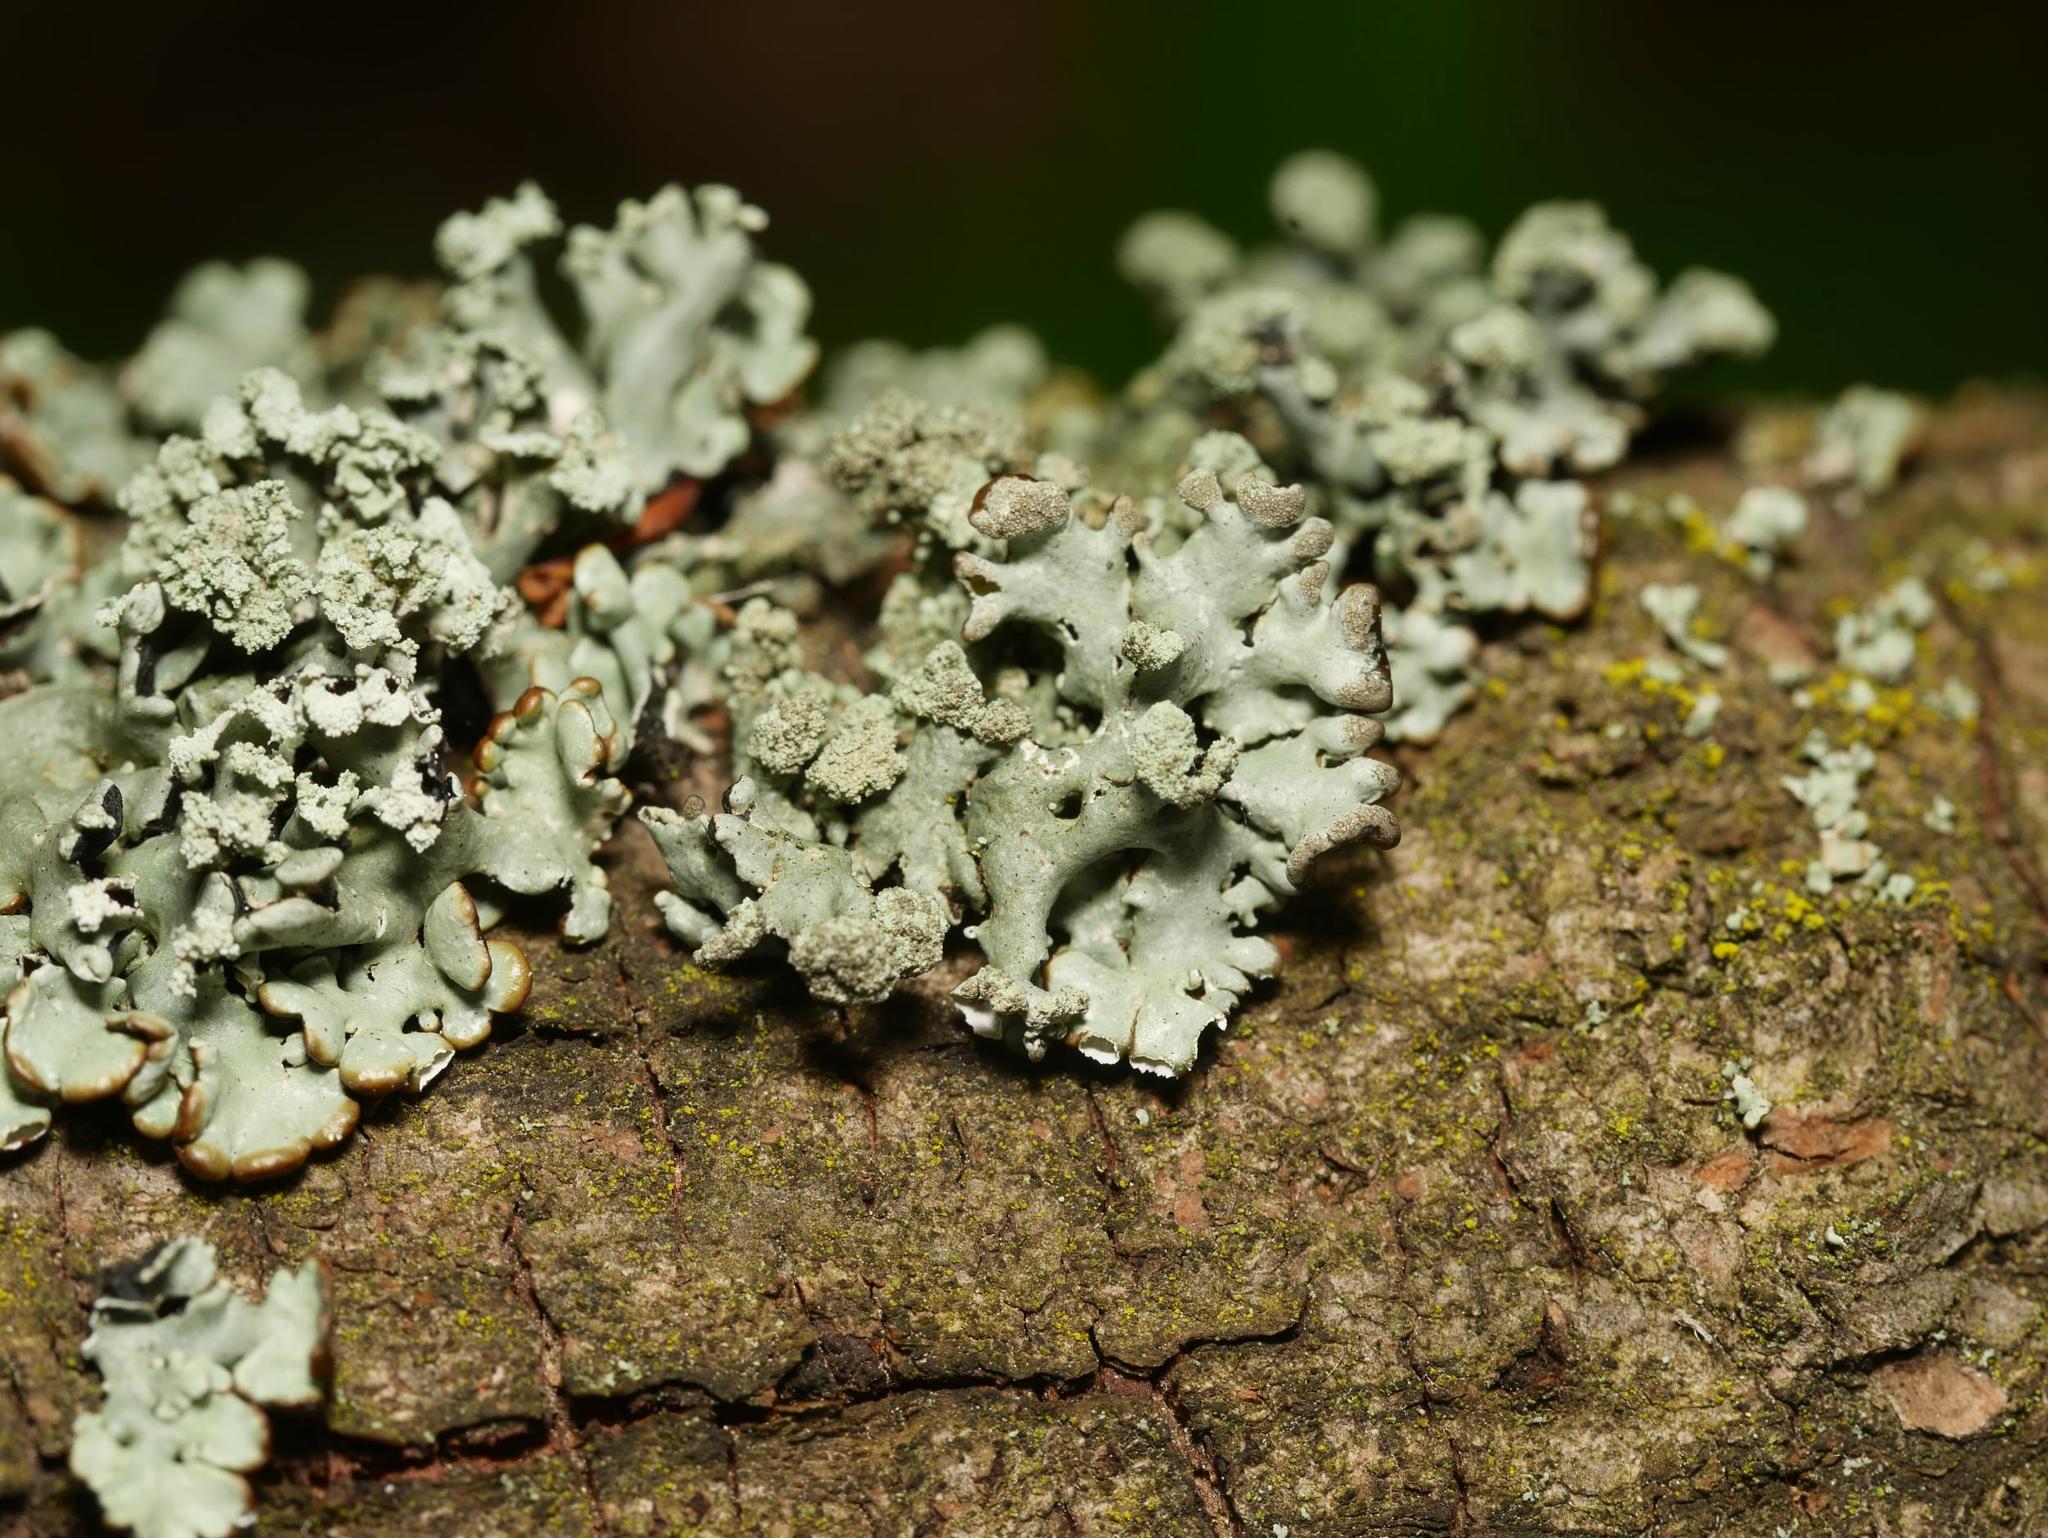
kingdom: Fungi
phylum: Ascomycota
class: Lecanoromycetes
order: Lecanorales
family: Parmeliaceae
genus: Hypogymnia
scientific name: Hypogymnia physodes
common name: Dark crottle
